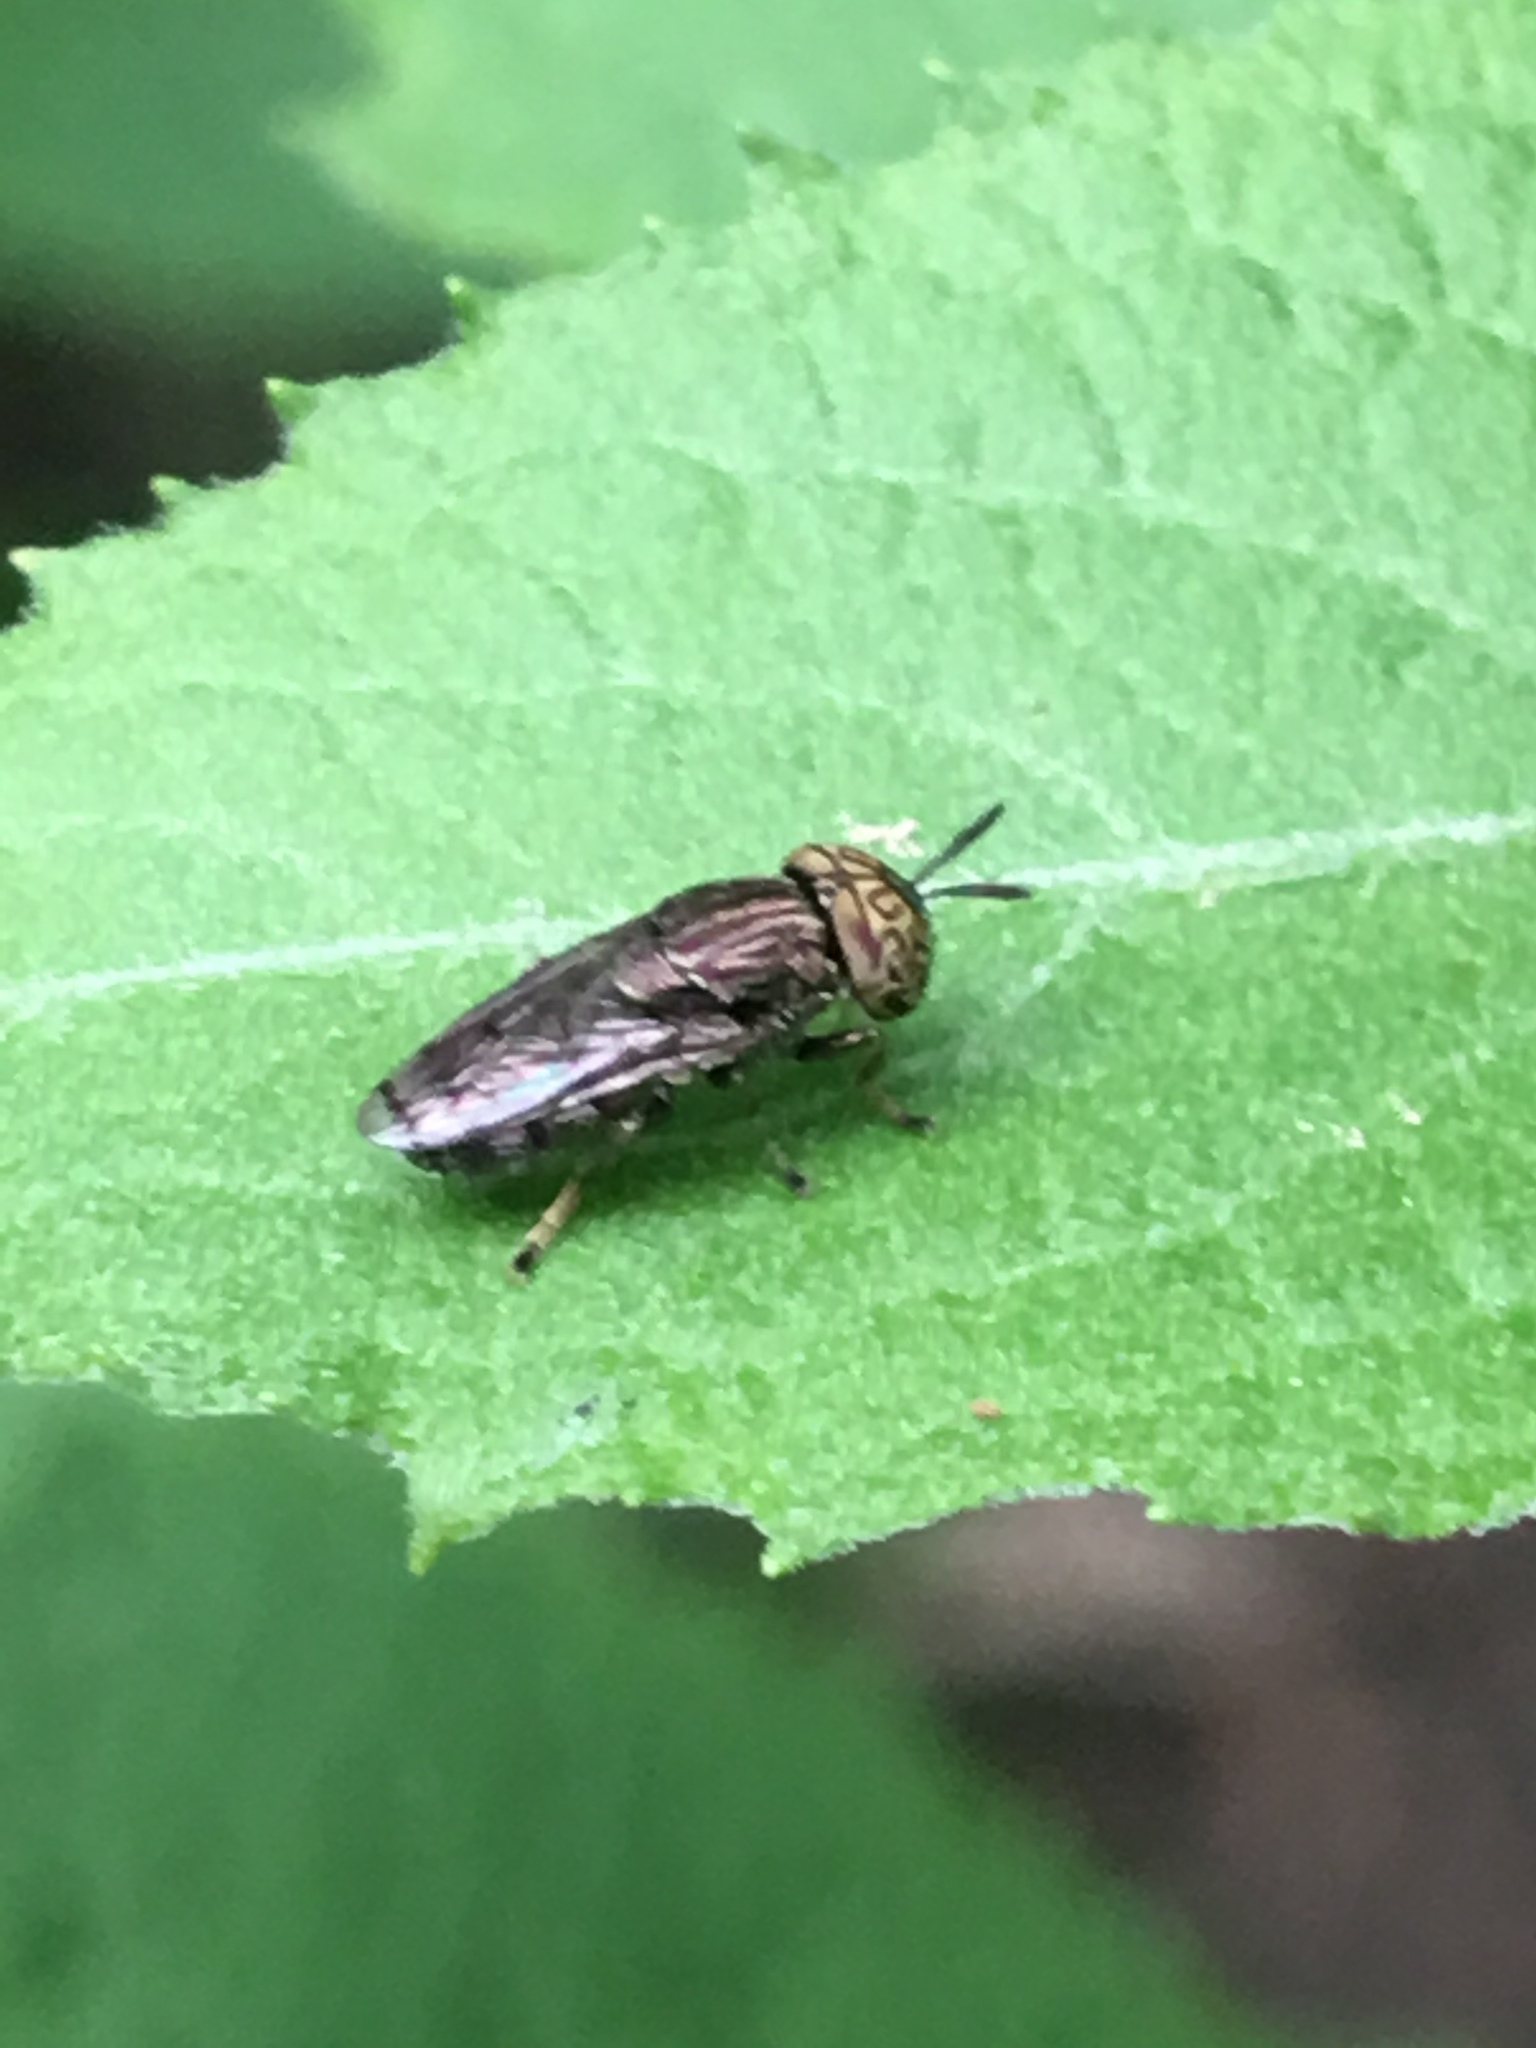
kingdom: Animalia
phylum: Arthropoda
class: Insecta
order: Diptera
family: Syrphidae
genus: Orthonevra
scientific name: Orthonevra nitida
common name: Wavy mucksucker
